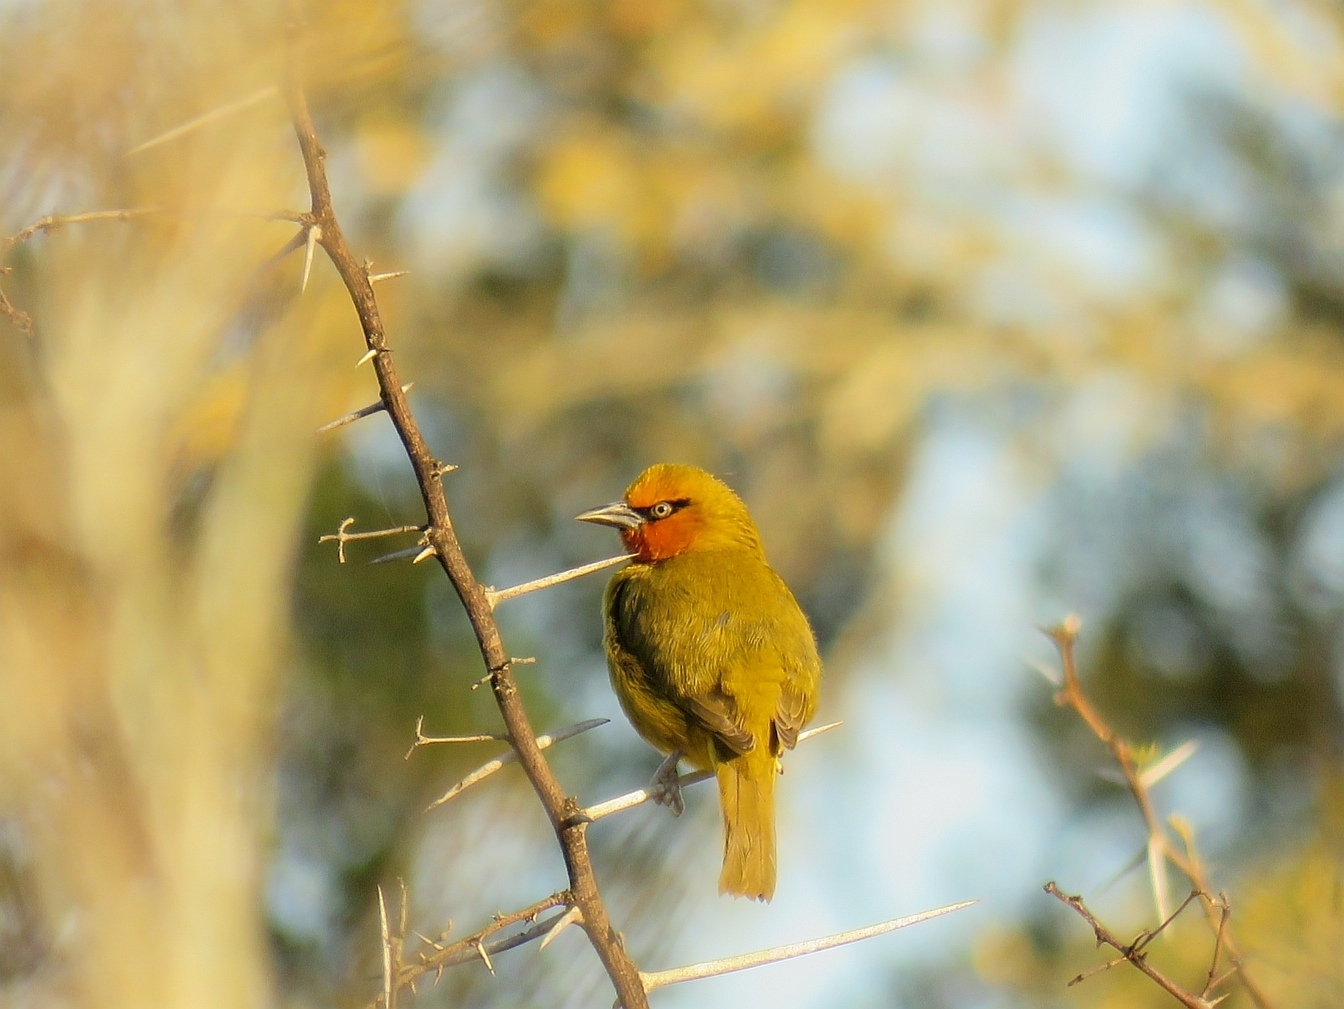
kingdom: Animalia
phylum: Chordata
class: Aves
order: Passeriformes
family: Ploceidae
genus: Ploceus
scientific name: Ploceus ocularis
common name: Spectacled weaver
